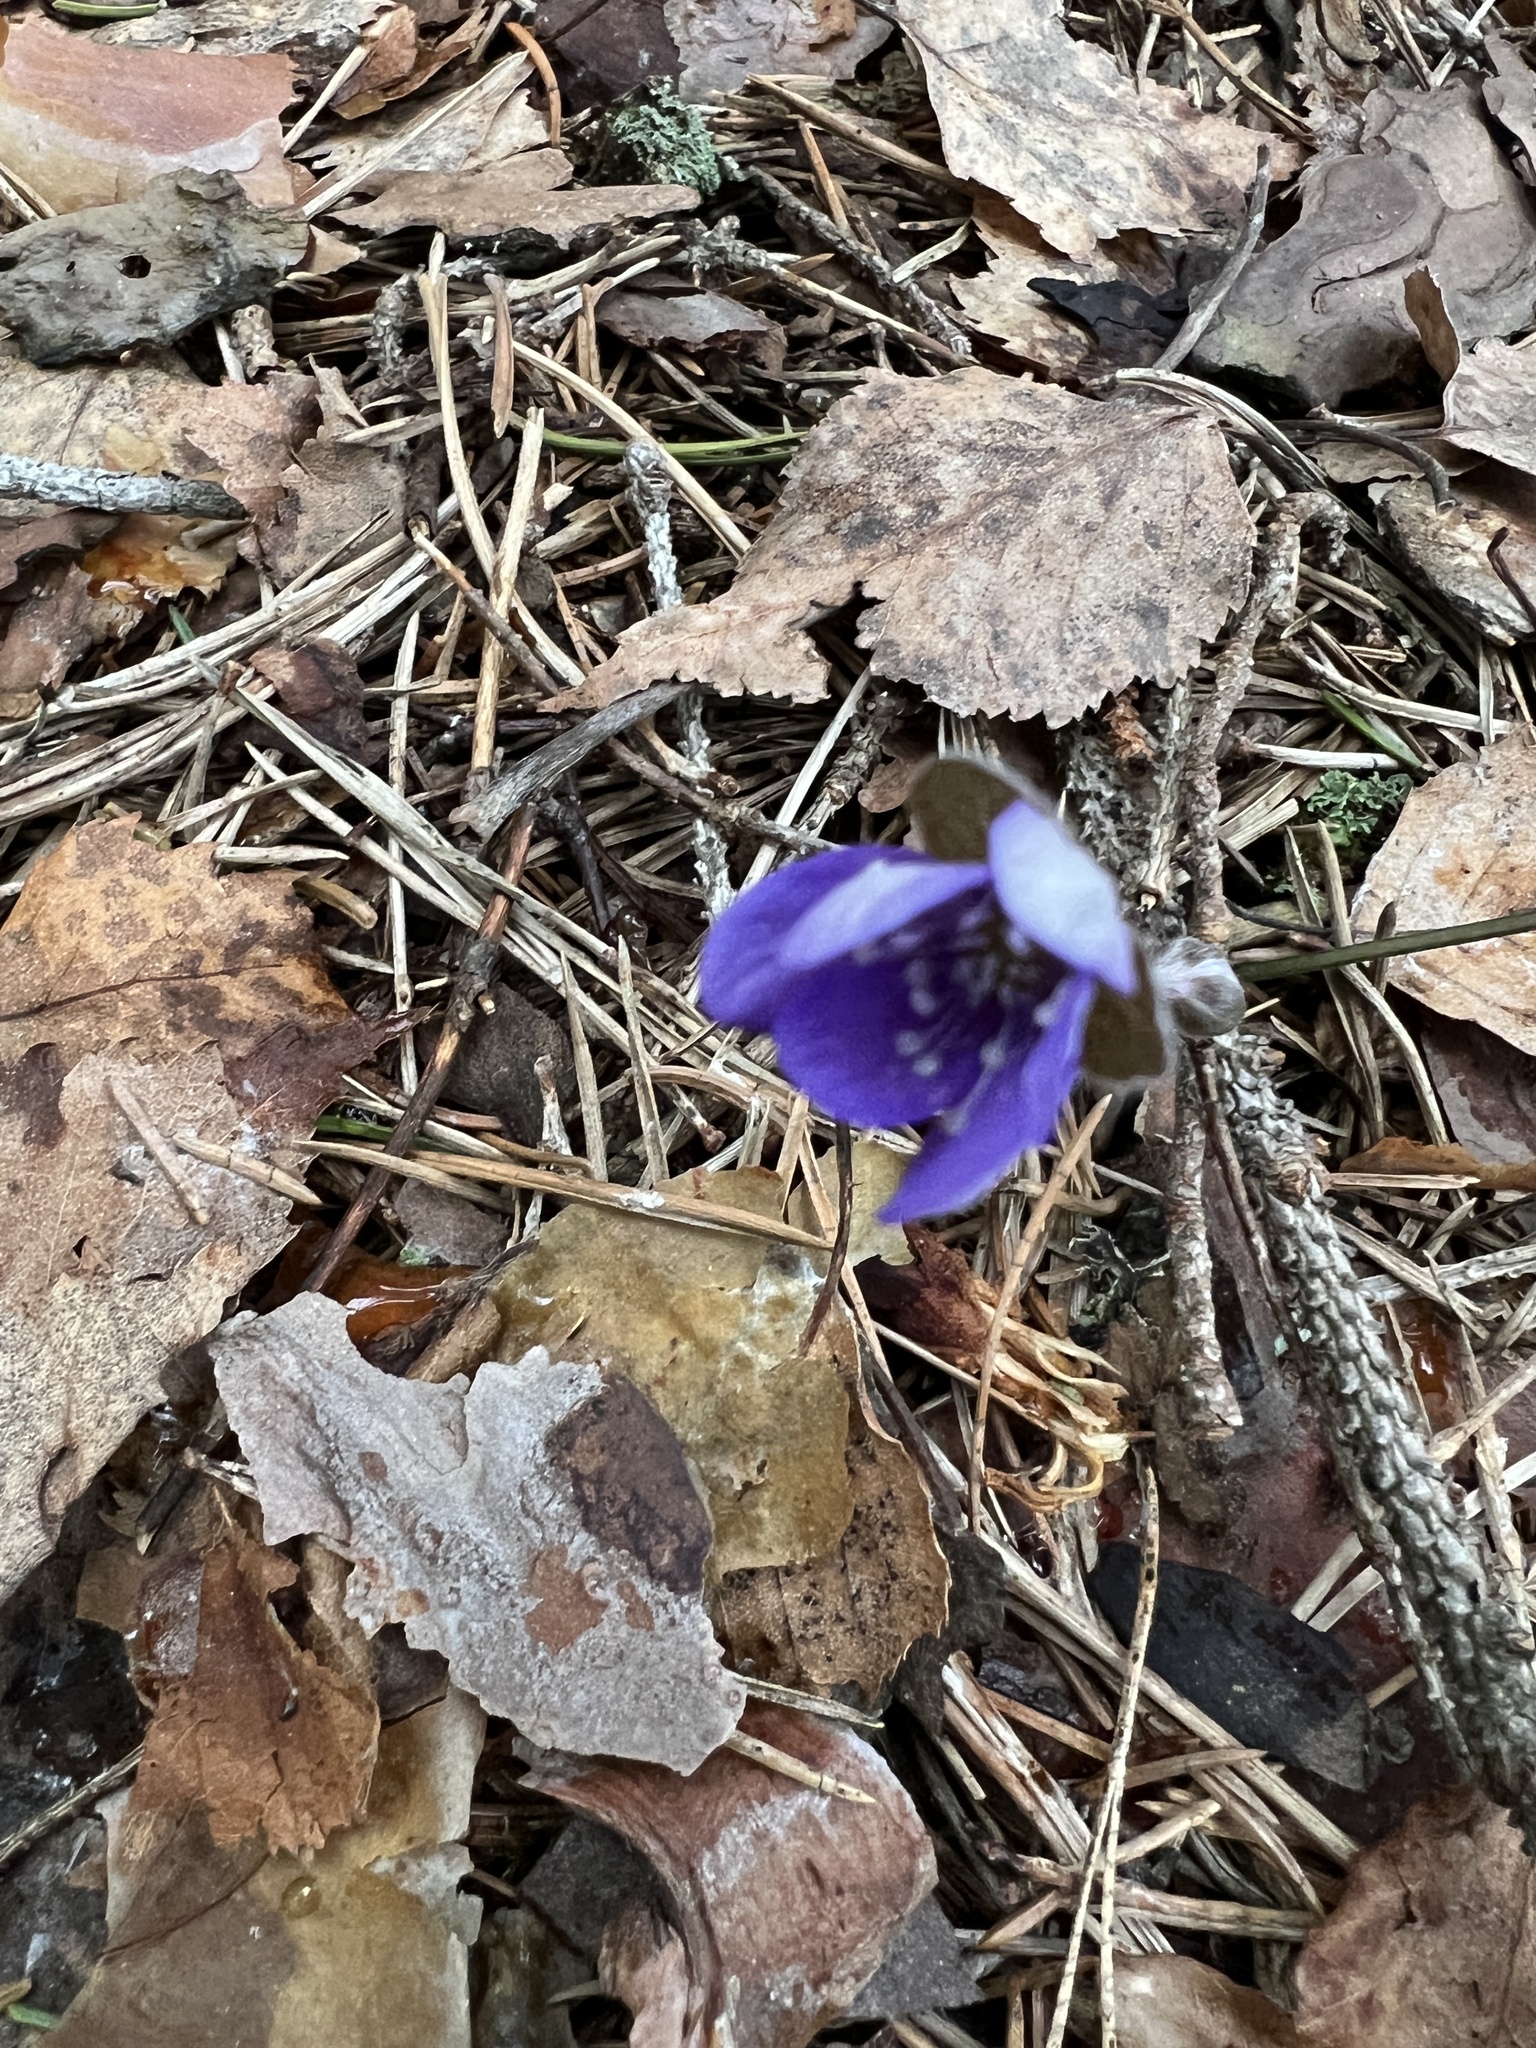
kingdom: Plantae
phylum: Tracheophyta
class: Magnoliopsida
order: Ranunculales
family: Ranunculaceae
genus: Hepatica
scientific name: Hepatica nobilis
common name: Liverleaf
